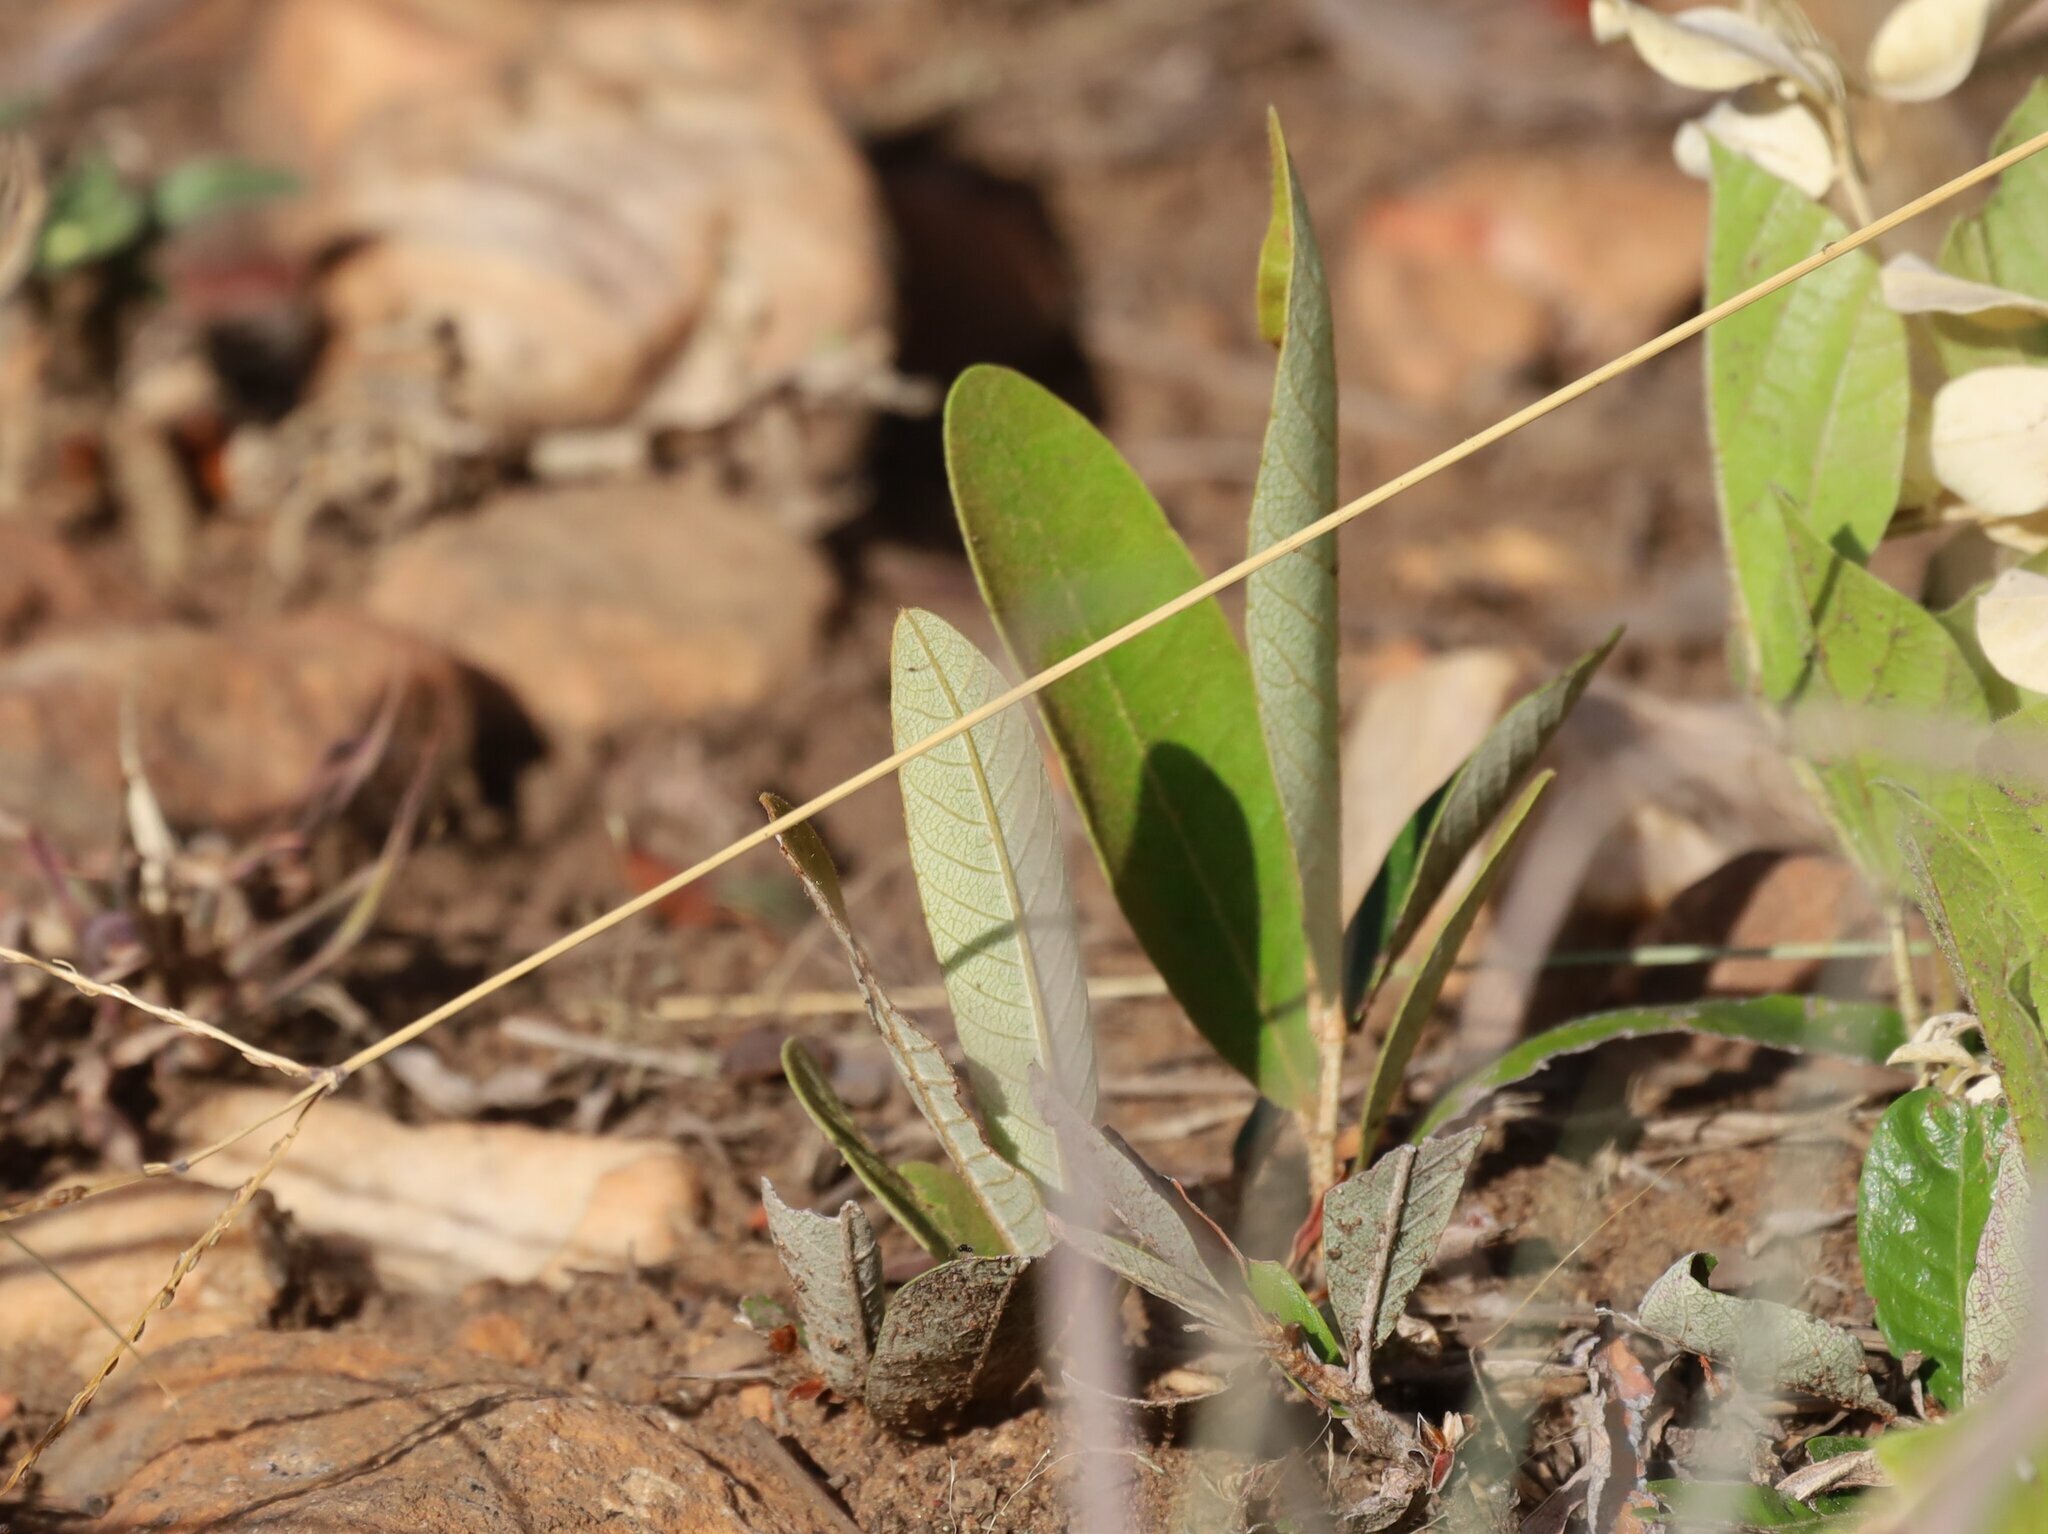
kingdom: Plantae
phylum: Tracheophyta
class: Magnoliopsida
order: Malpighiales
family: Chrysobalanaceae
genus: Parinari
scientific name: Parinari capensis
